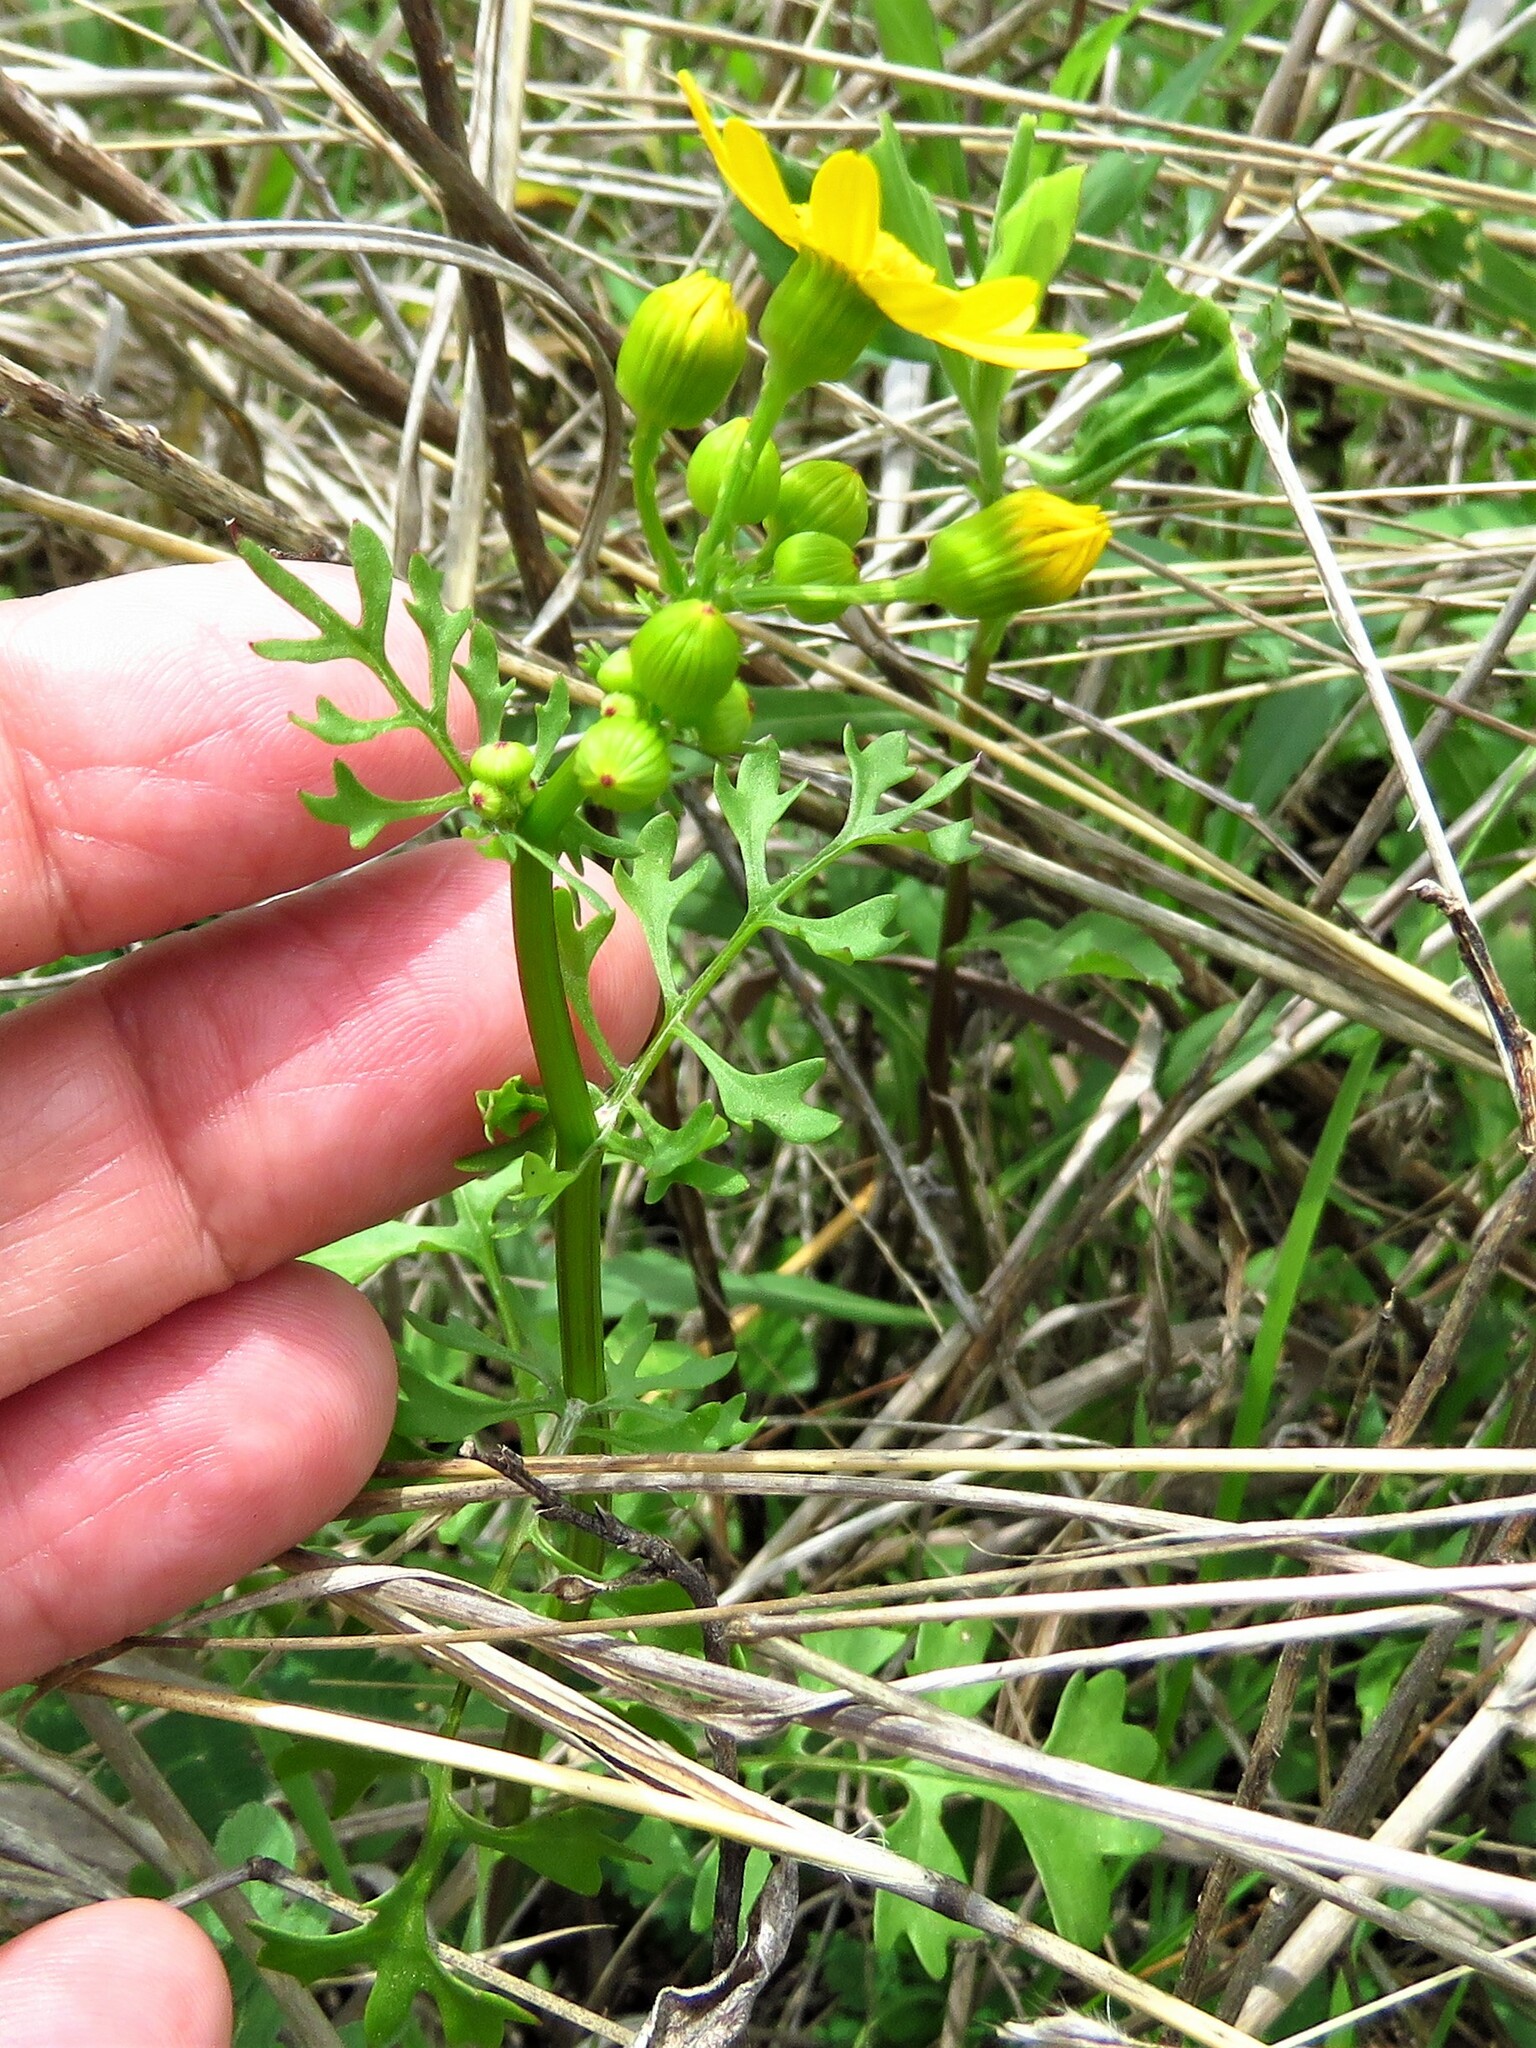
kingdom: Plantae
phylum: Tracheophyta
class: Magnoliopsida
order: Asterales
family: Asteraceae
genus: Packera
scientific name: Packera tampicana
